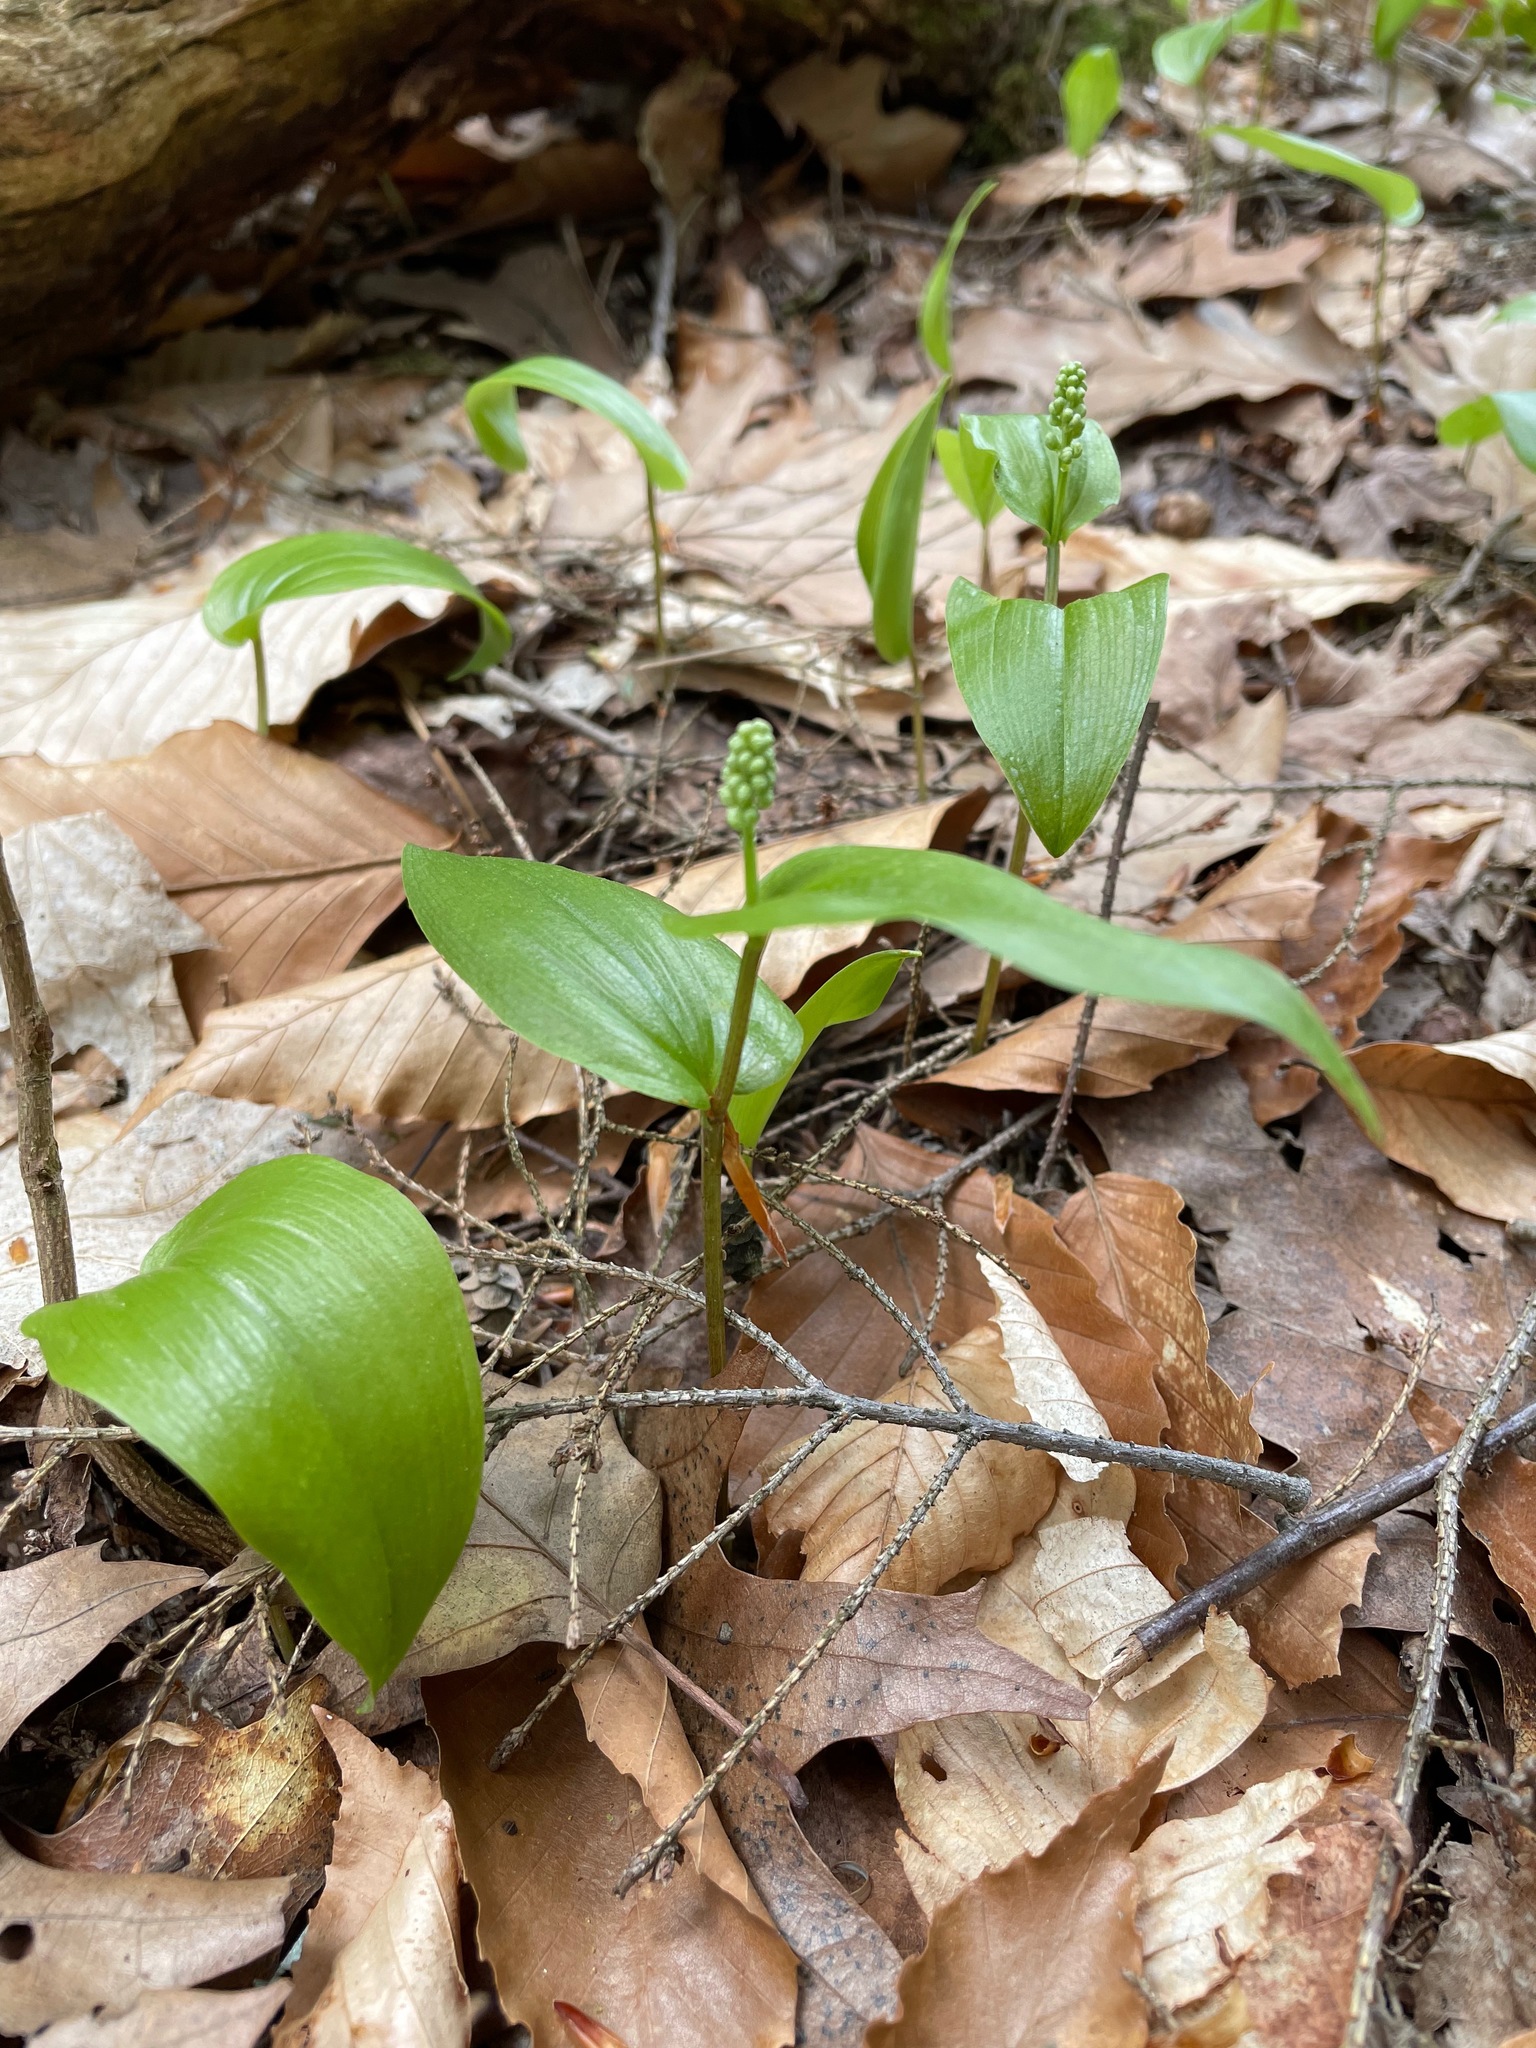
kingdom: Plantae
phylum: Tracheophyta
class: Liliopsida
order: Asparagales
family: Asparagaceae
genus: Maianthemum
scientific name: Maianthemum canadense
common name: False lily-of-the-valley
